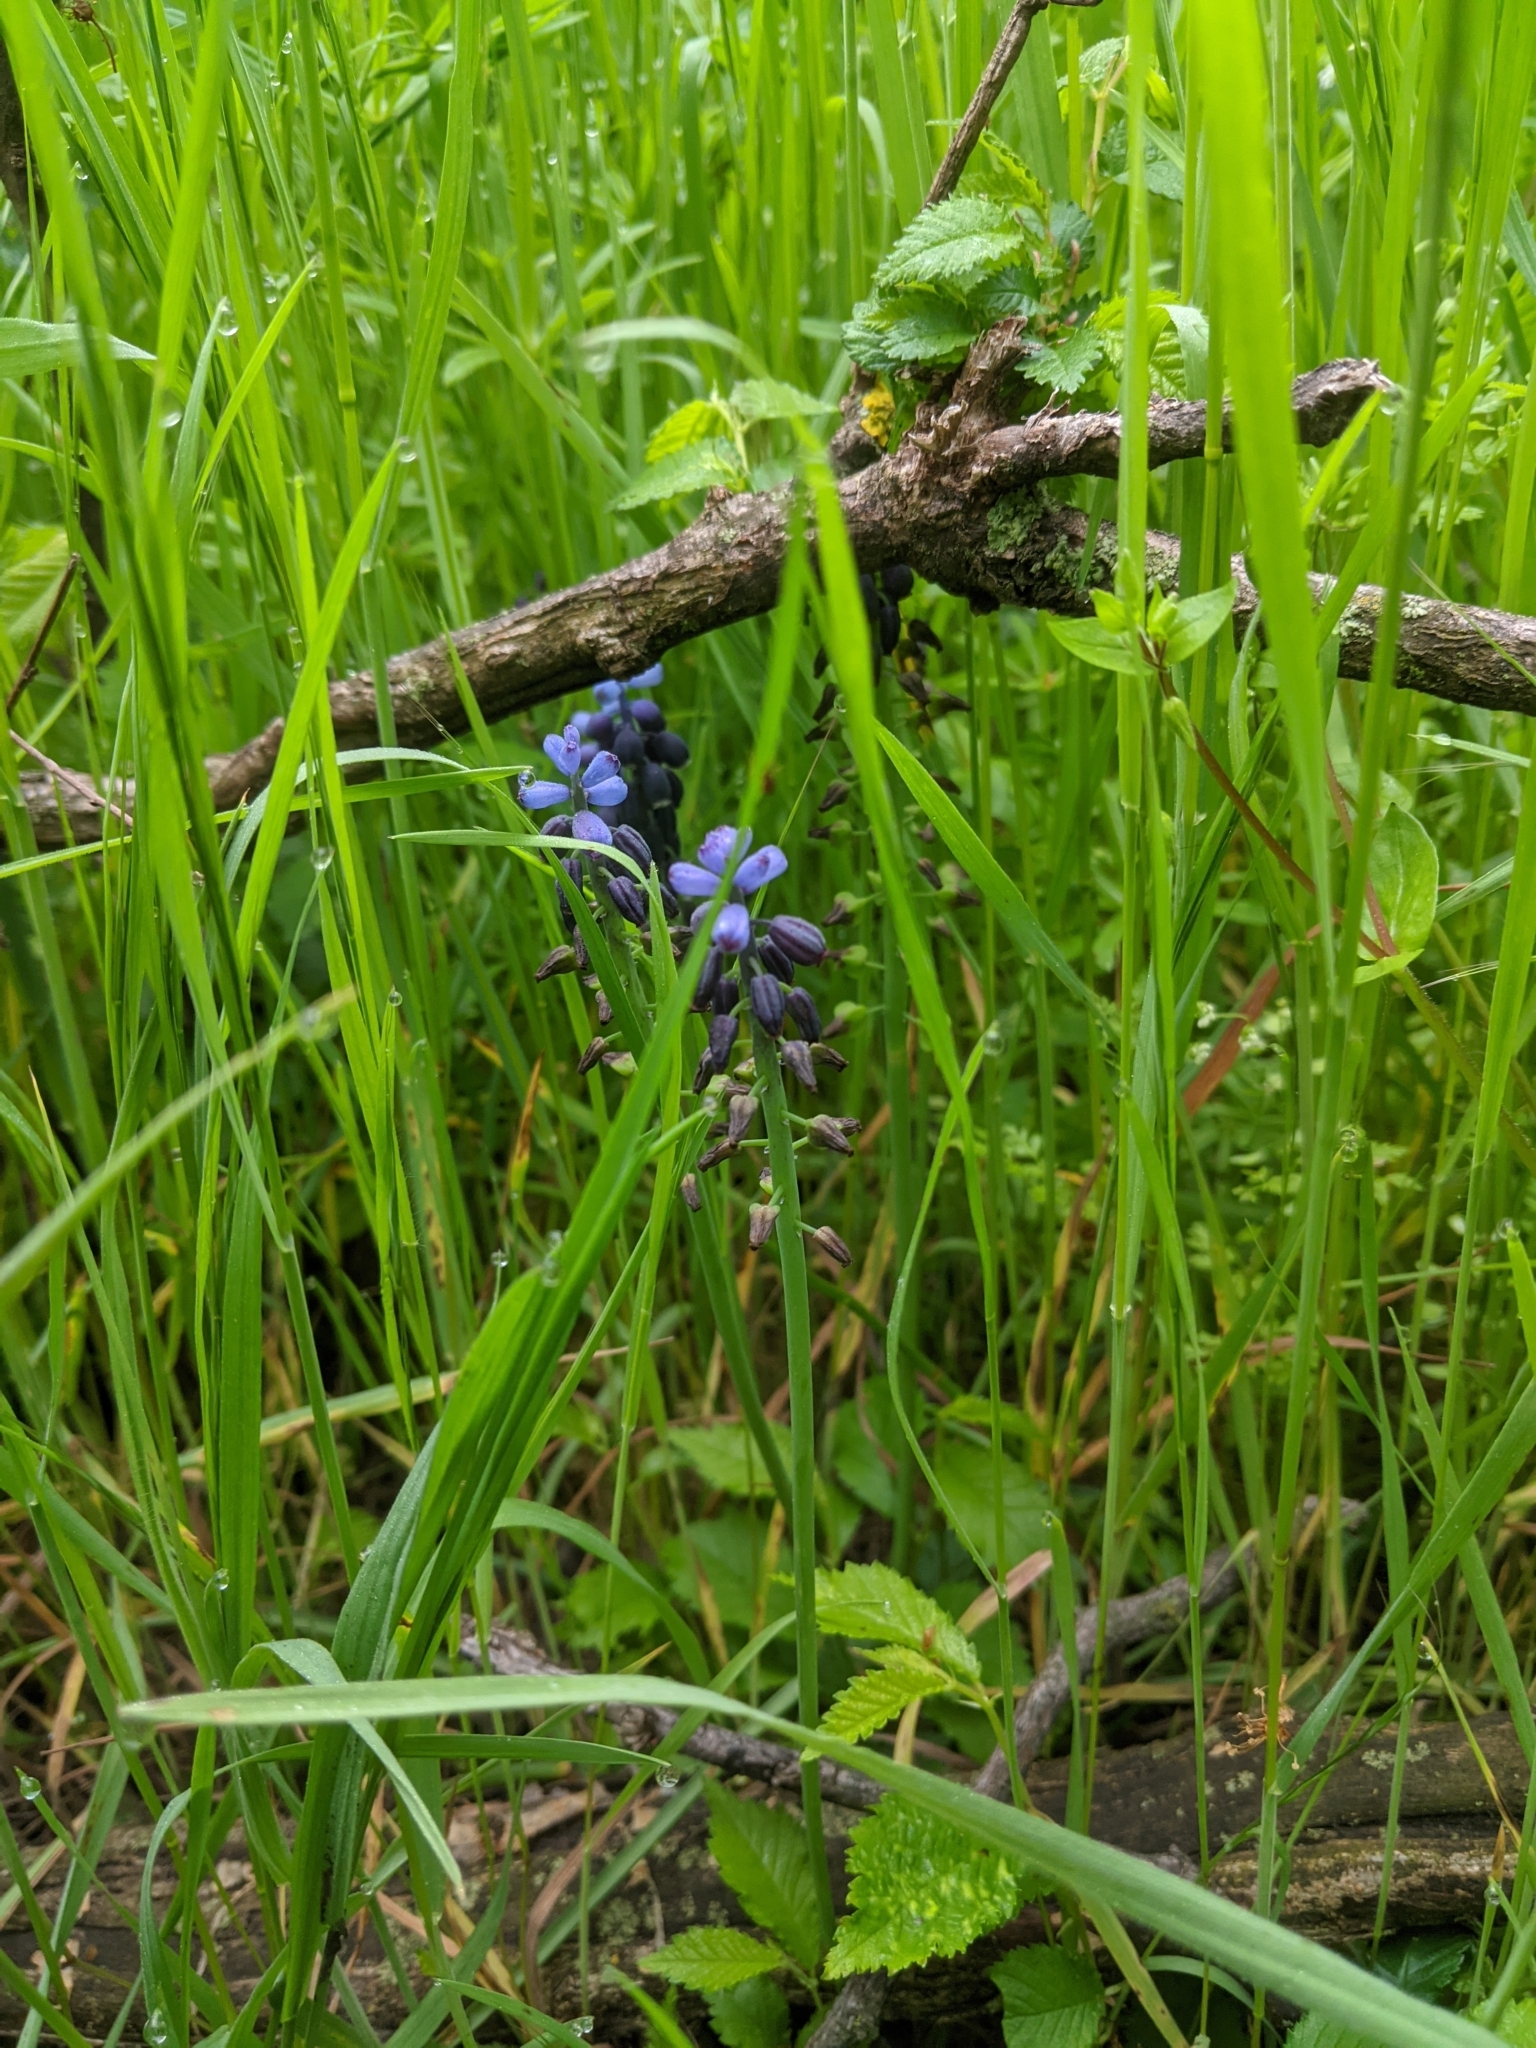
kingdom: Plantae
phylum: Tracheophyta
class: Liliopsida
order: Asparagales
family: Asparagaceae
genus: Muscari
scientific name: Muscari neglectum
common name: Grape-hyacinth
